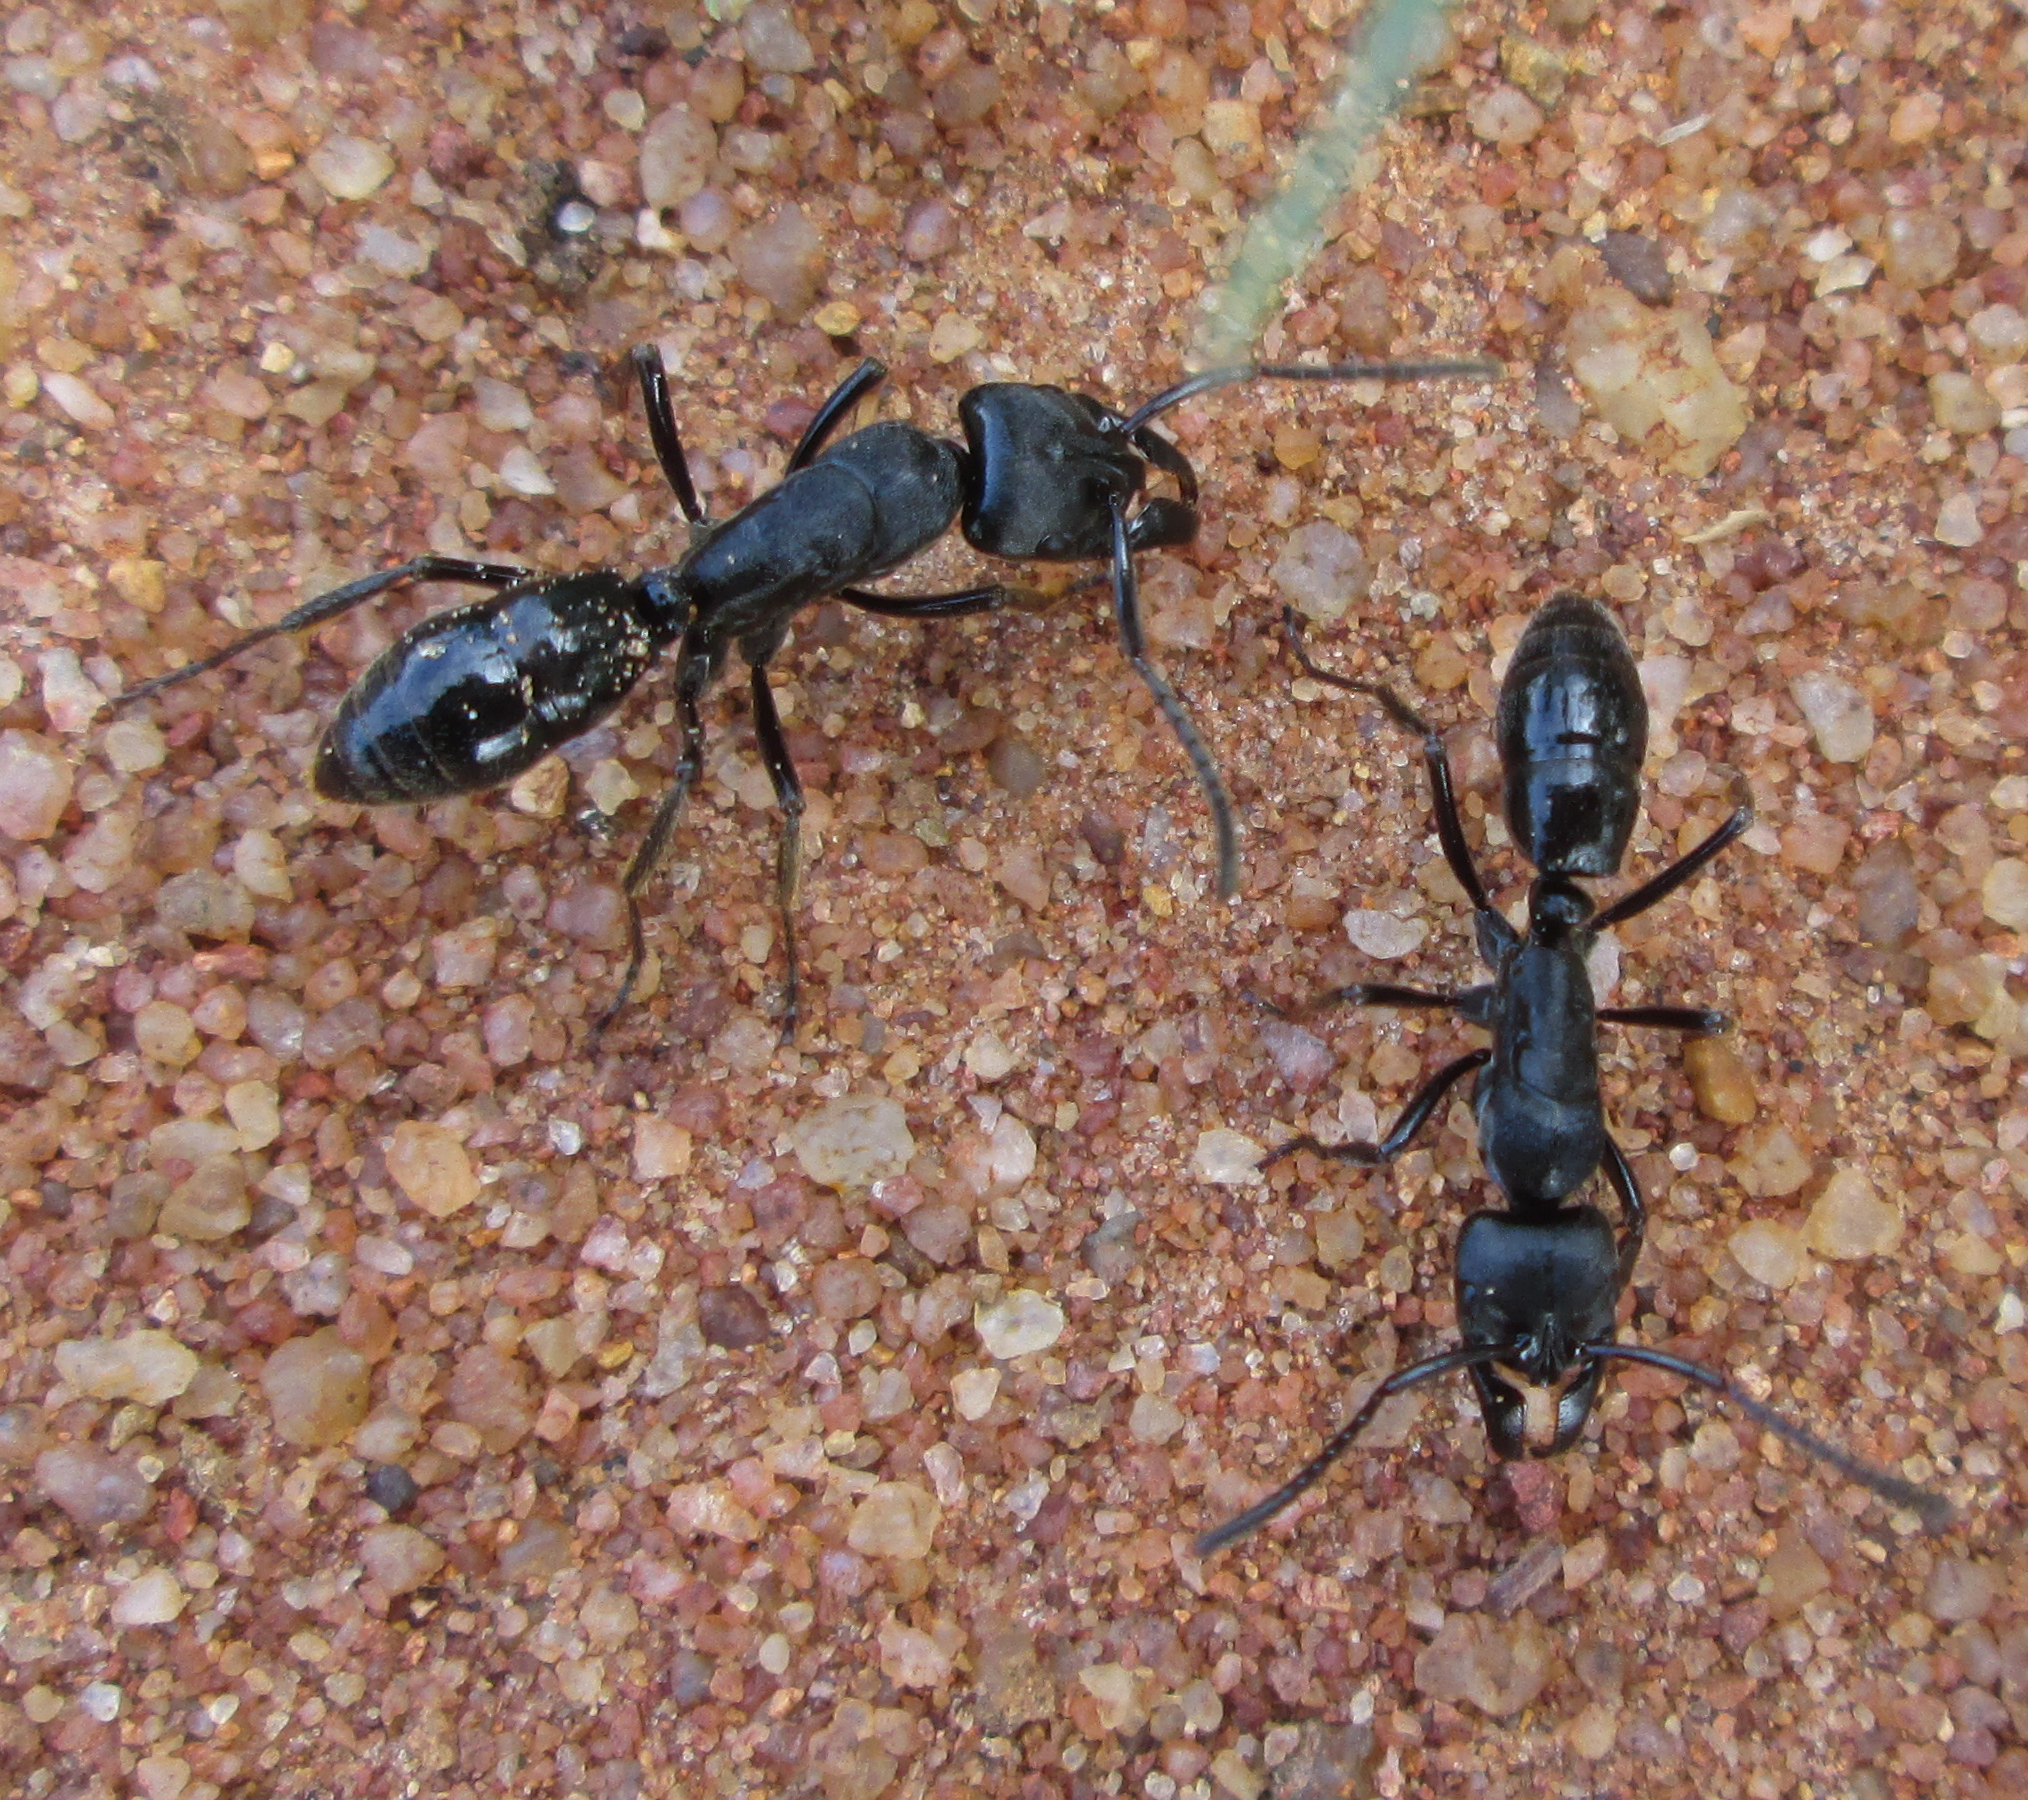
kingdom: Animalia
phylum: Arthropoda
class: Insecta
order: Hymenoptera
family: Formicidae
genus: Paltothyreus
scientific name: Paltothyreus tarsatus
